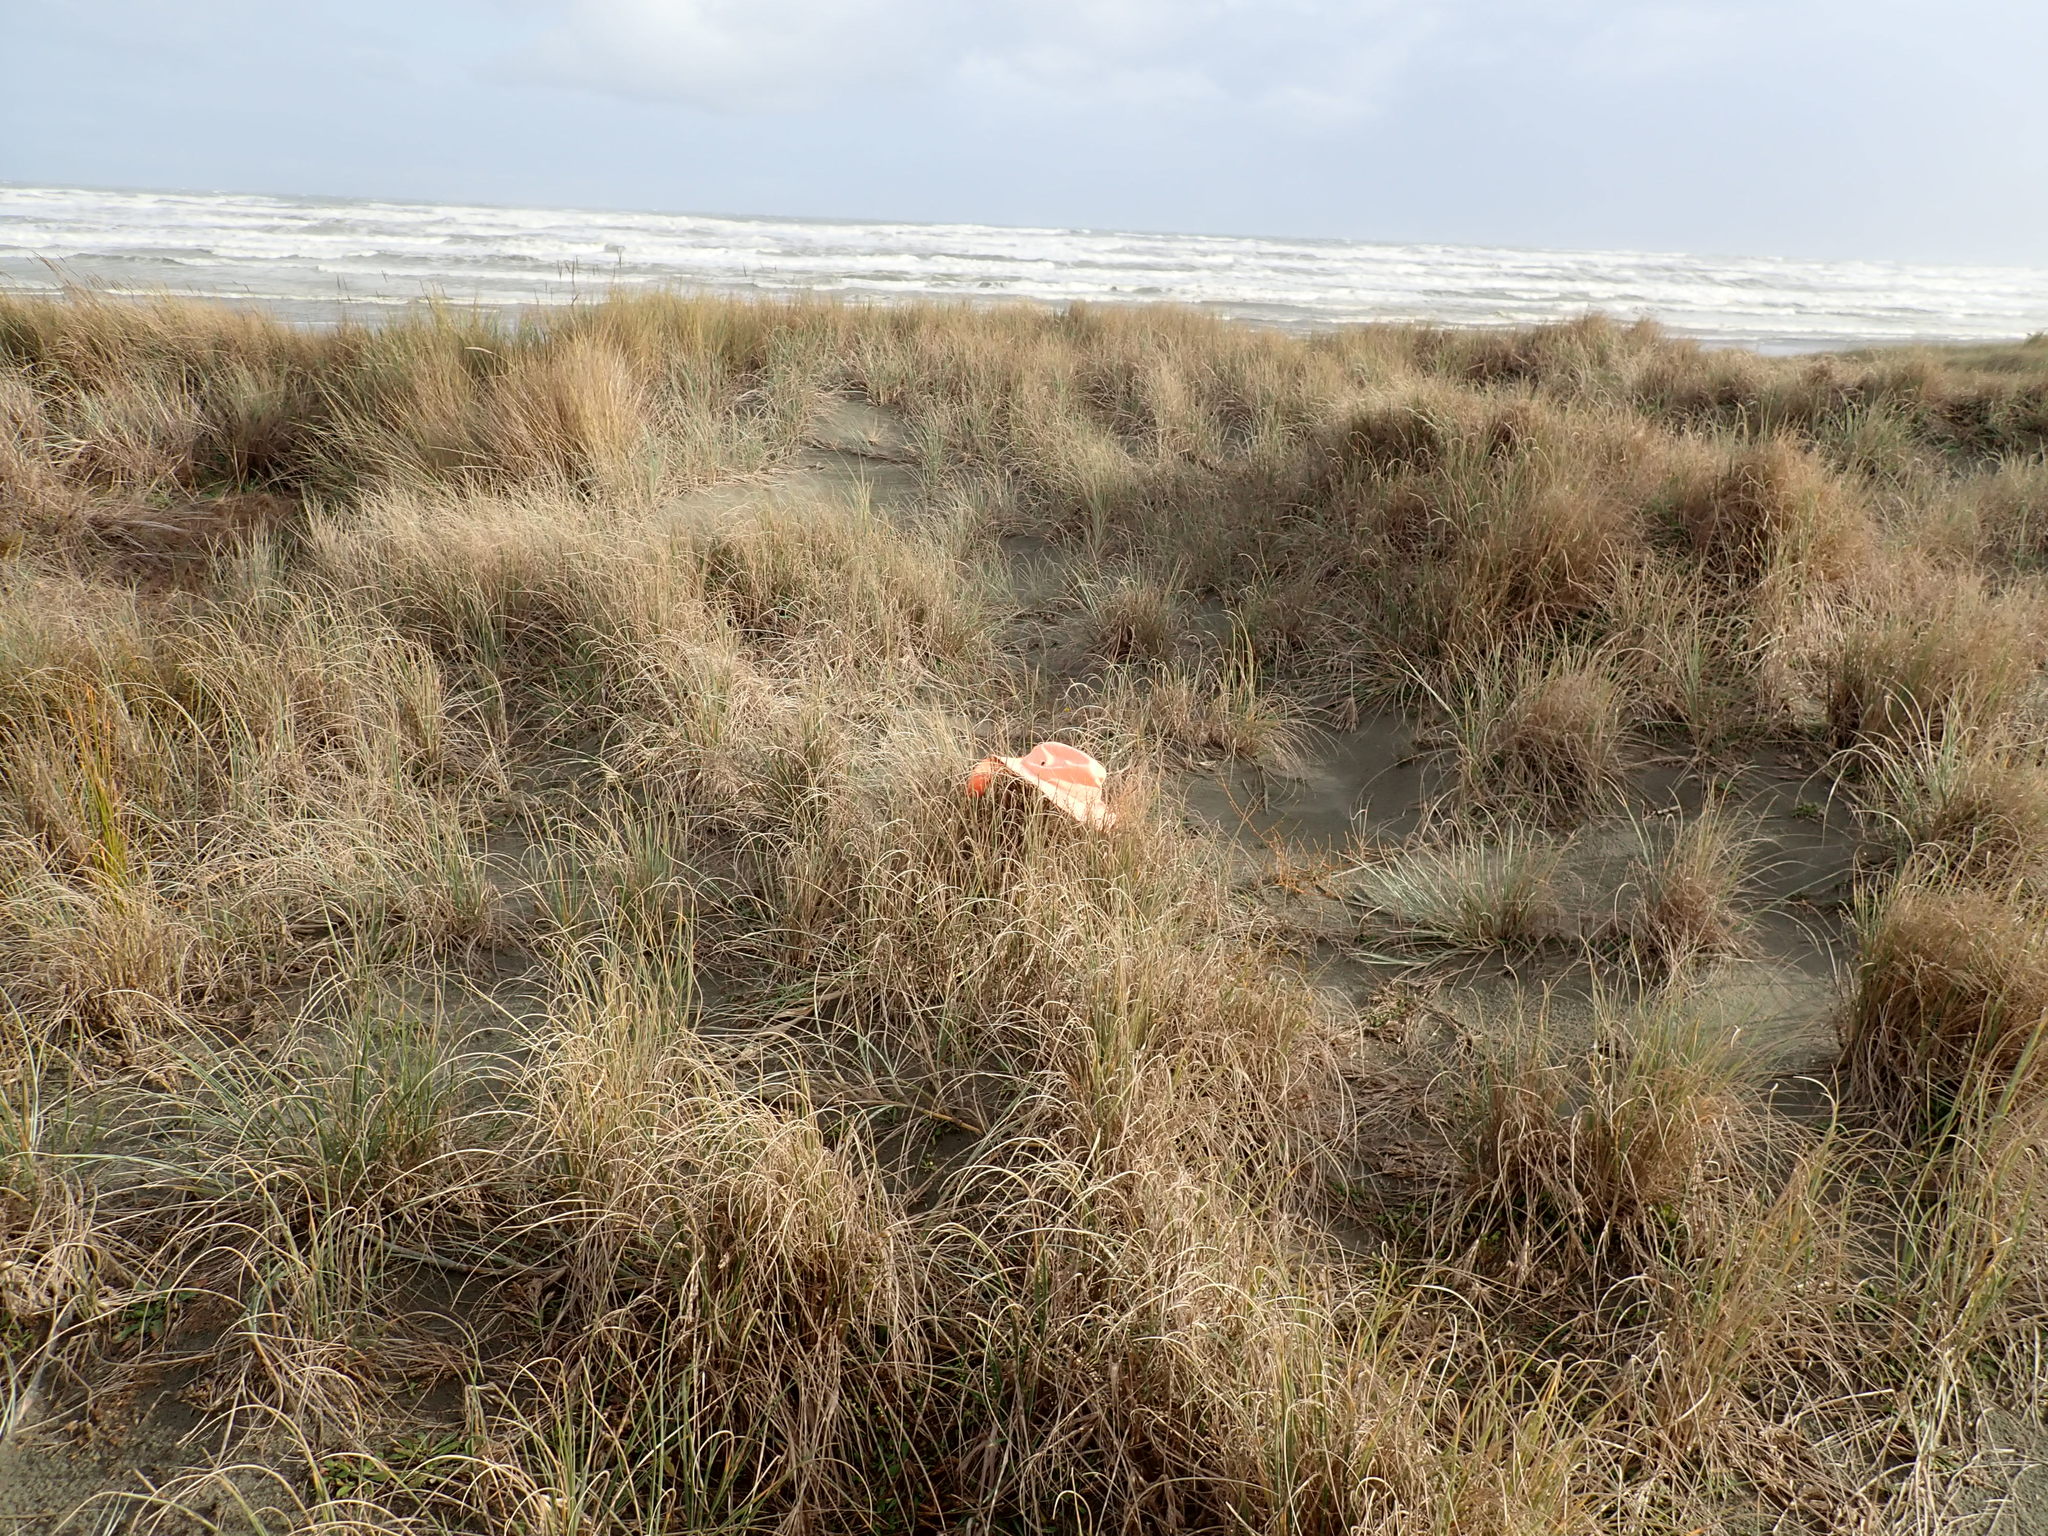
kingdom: Animalia
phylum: Arthropoda
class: Arachnida
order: Araneae
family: Salticidae
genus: Maratus
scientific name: Maratus griseus
